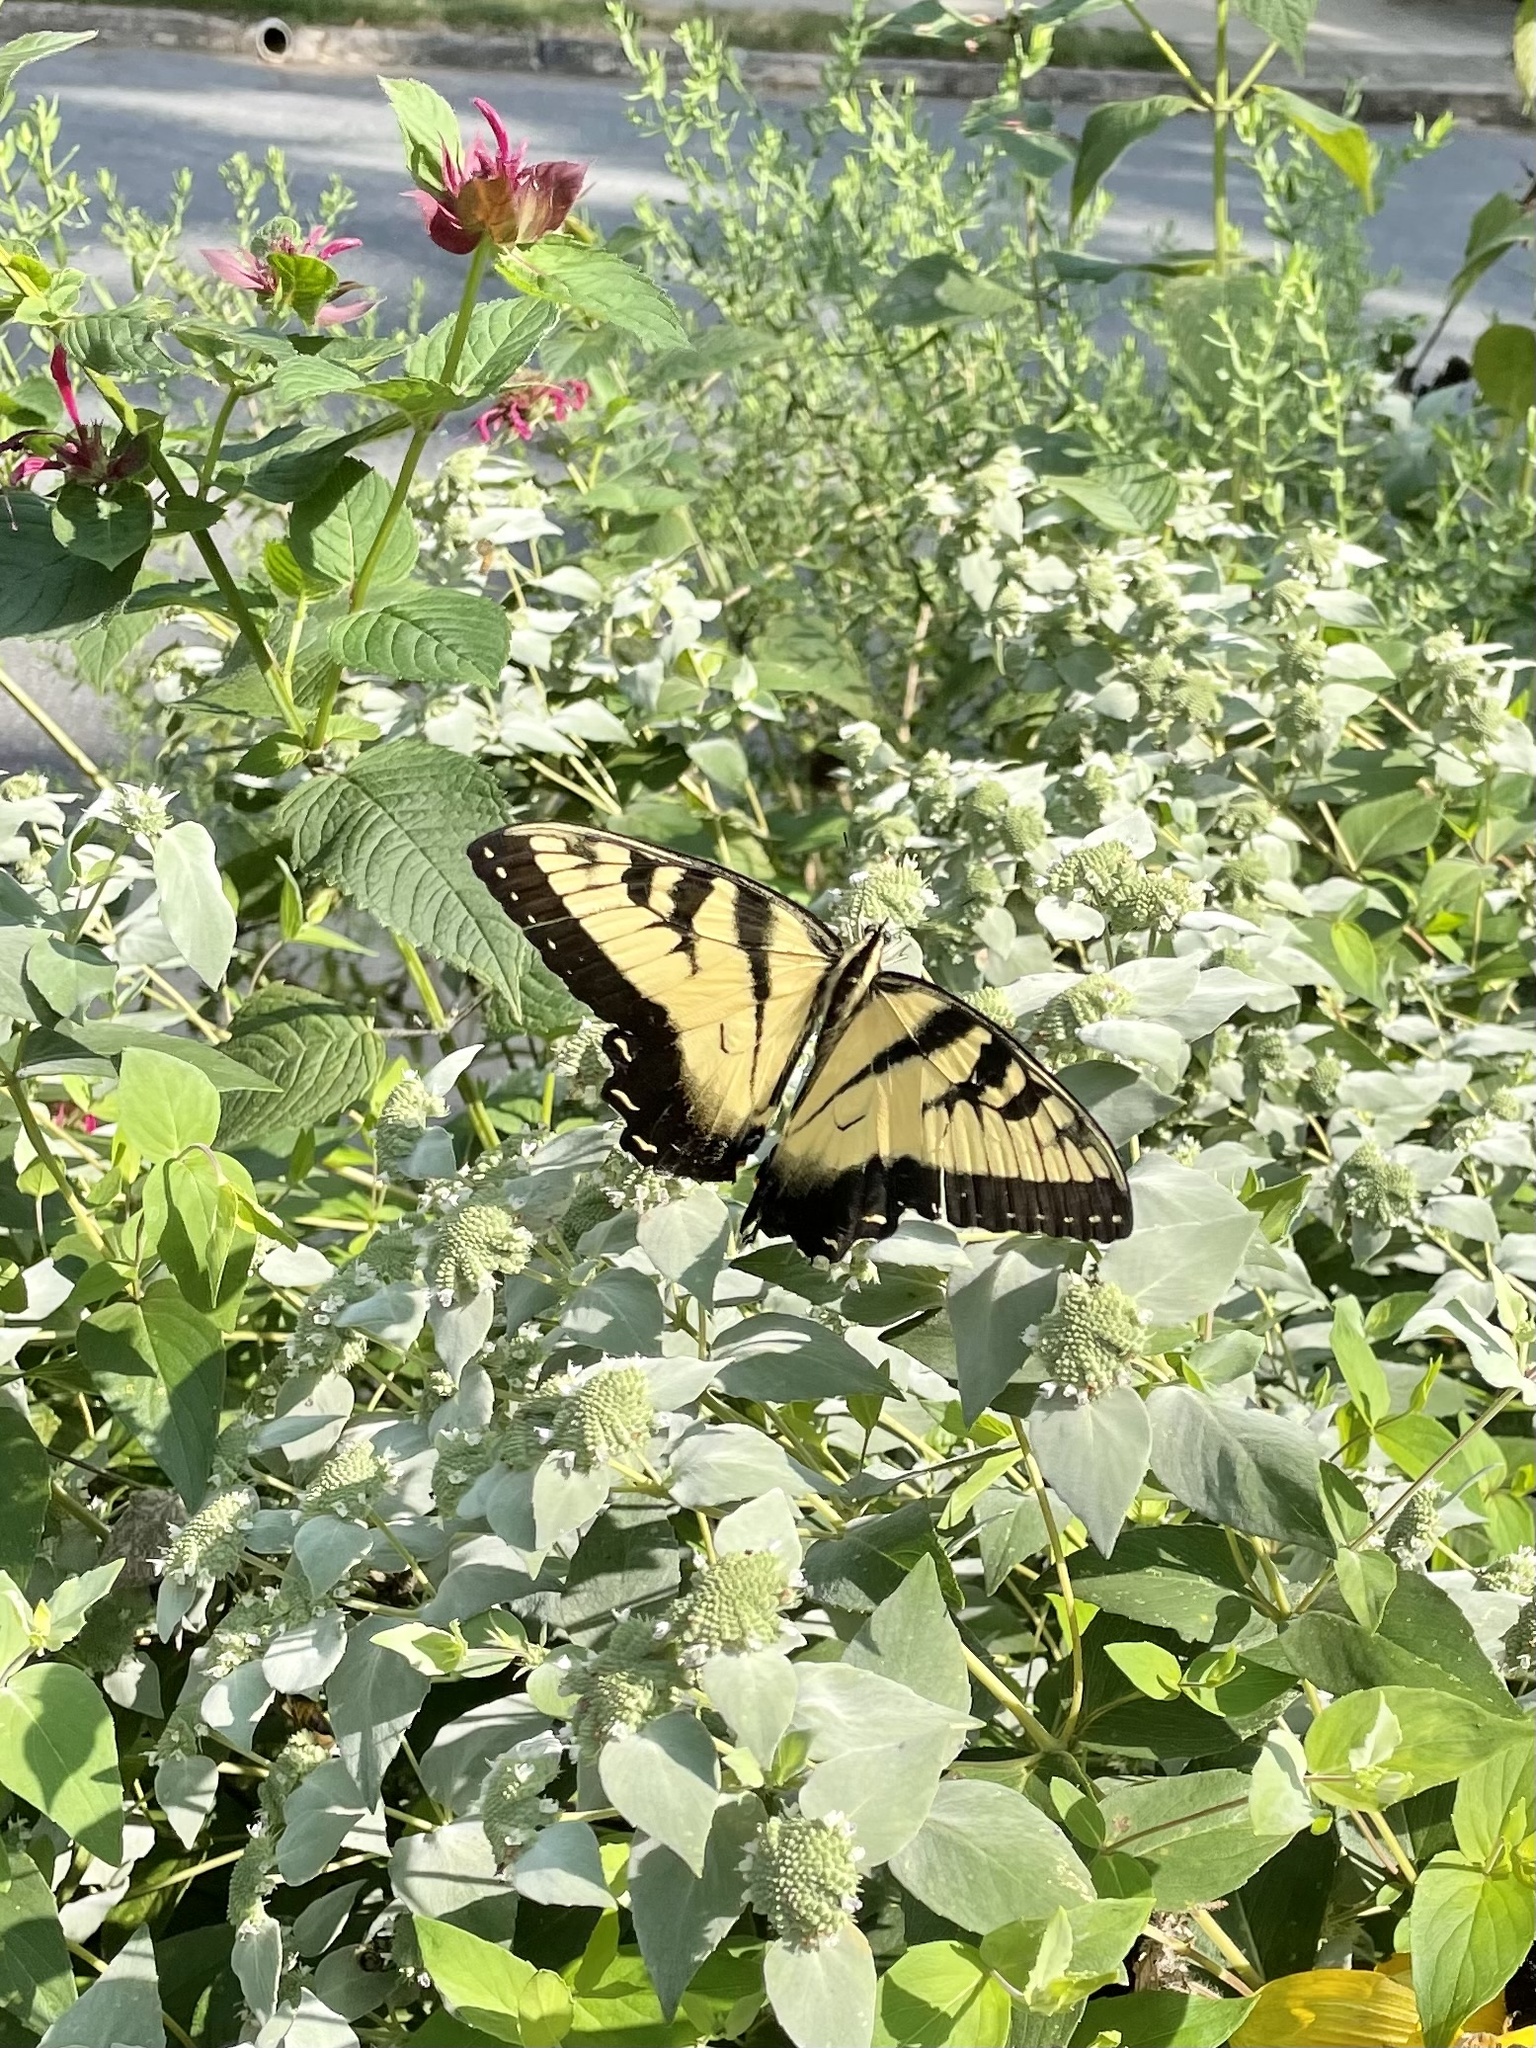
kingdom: Animalia
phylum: Arthropoda
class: Insecta
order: Lepidoptera
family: Papilionidae
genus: Papilio
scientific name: Papilio glaucus
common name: Tiger swallowtail
